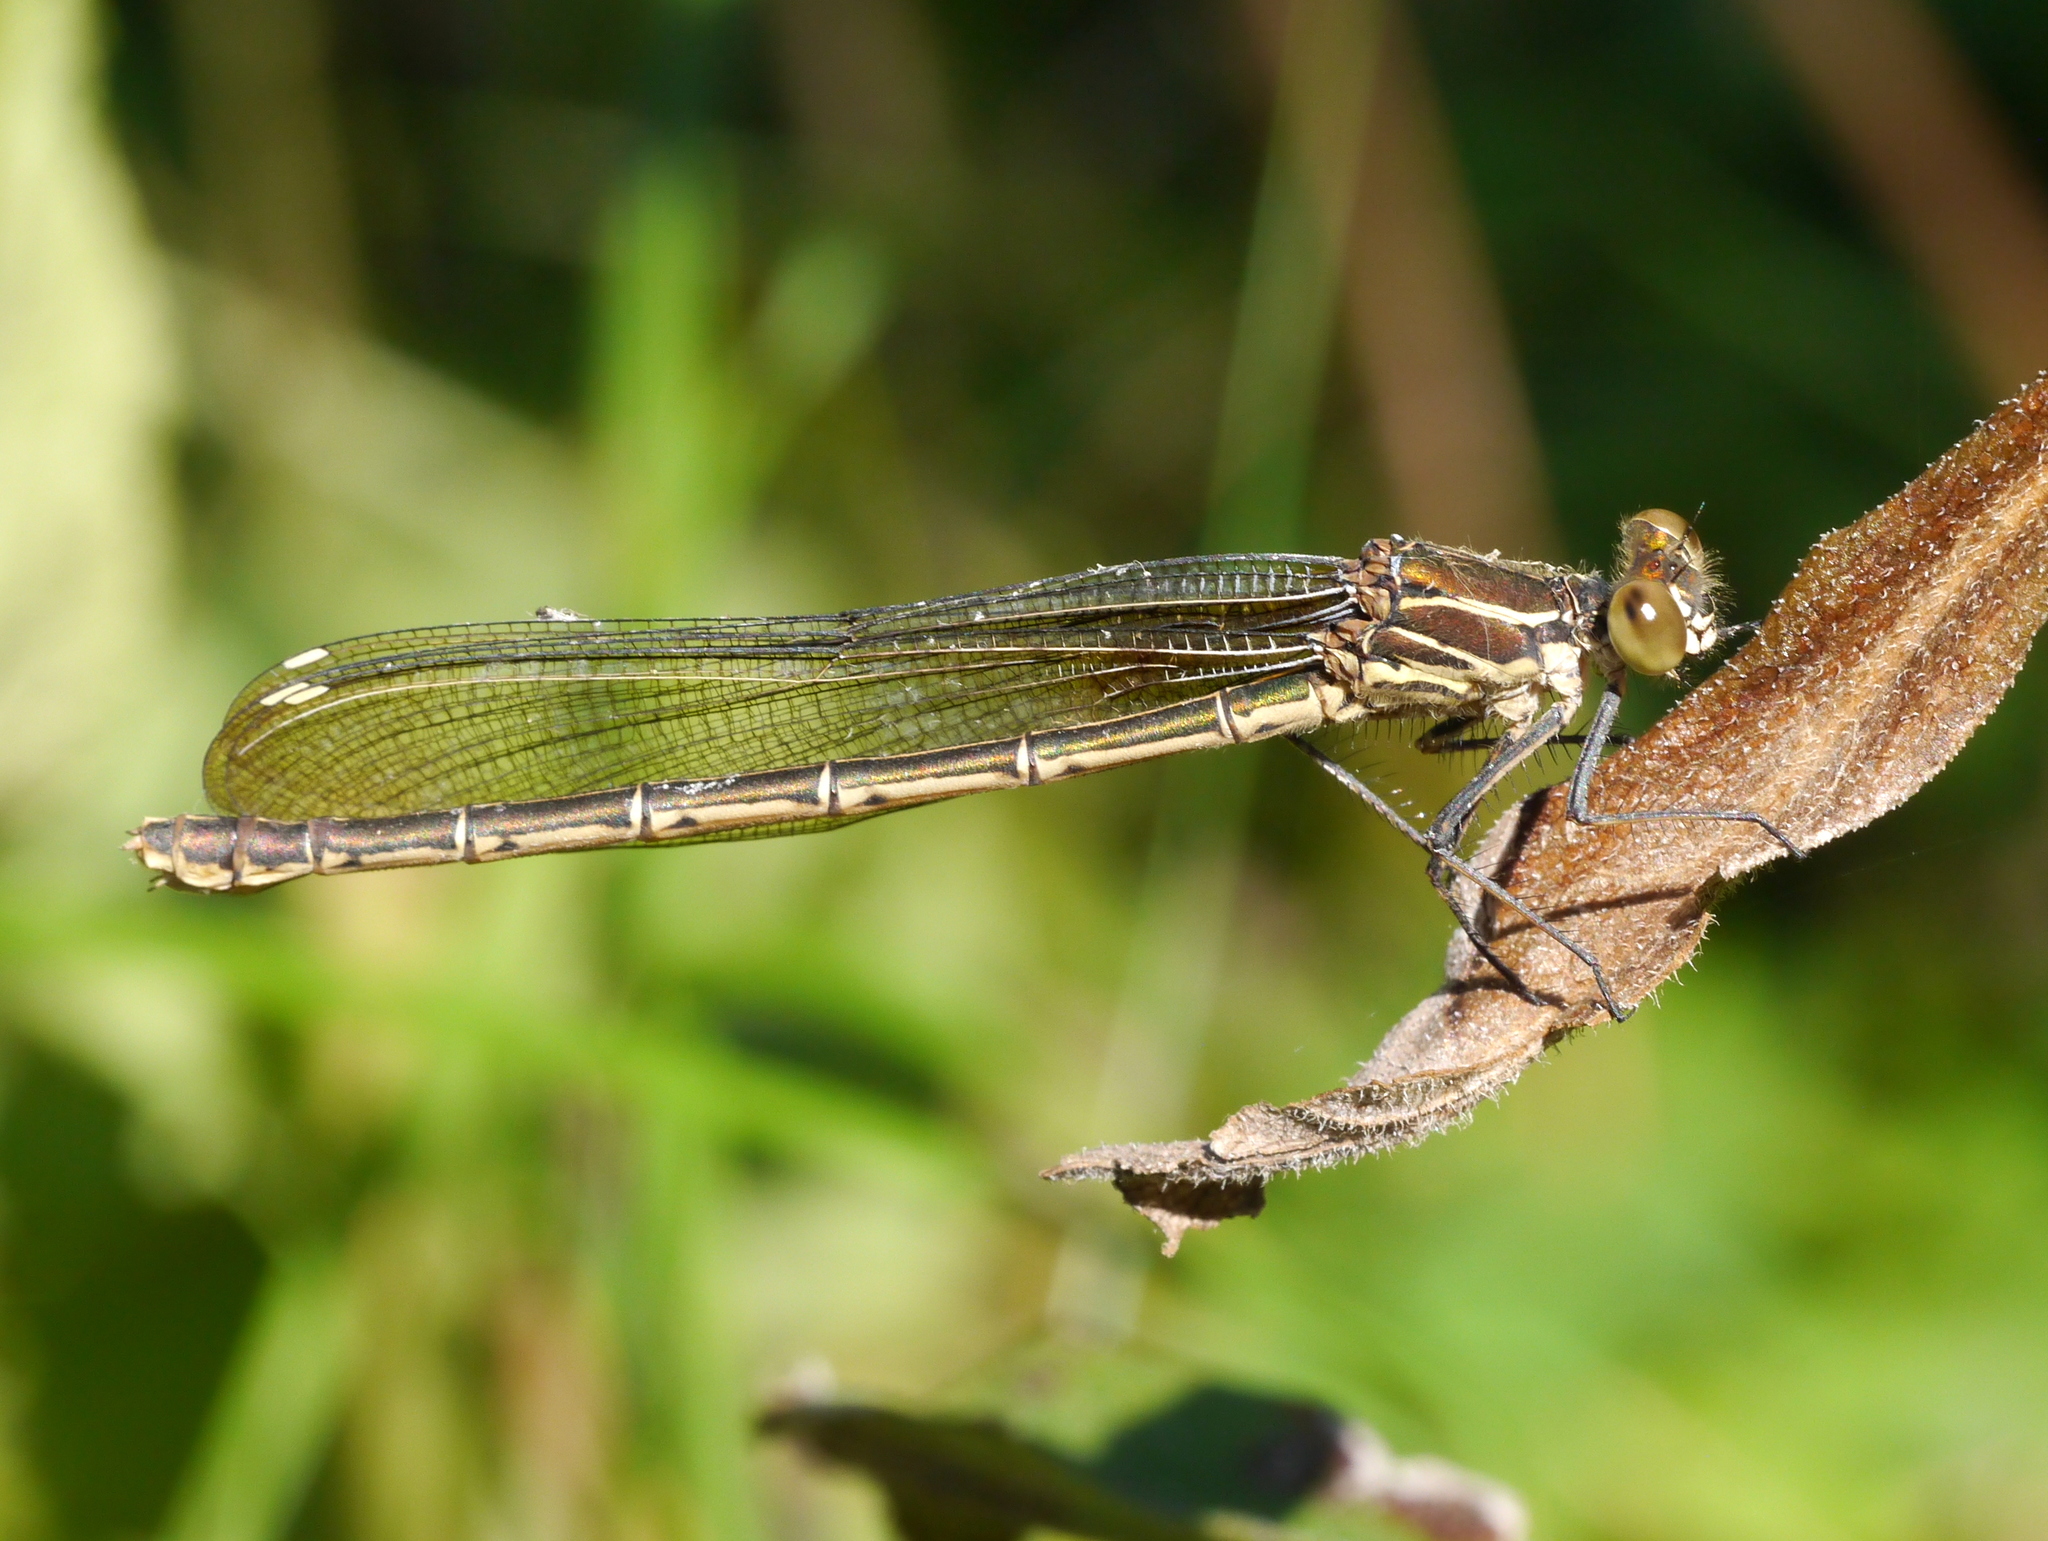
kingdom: Animalia
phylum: Arthropoda
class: Insecta
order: Odonata
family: Calopterygidae
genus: Hetaerina
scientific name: Hetaerina americana
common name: American rubyspot
